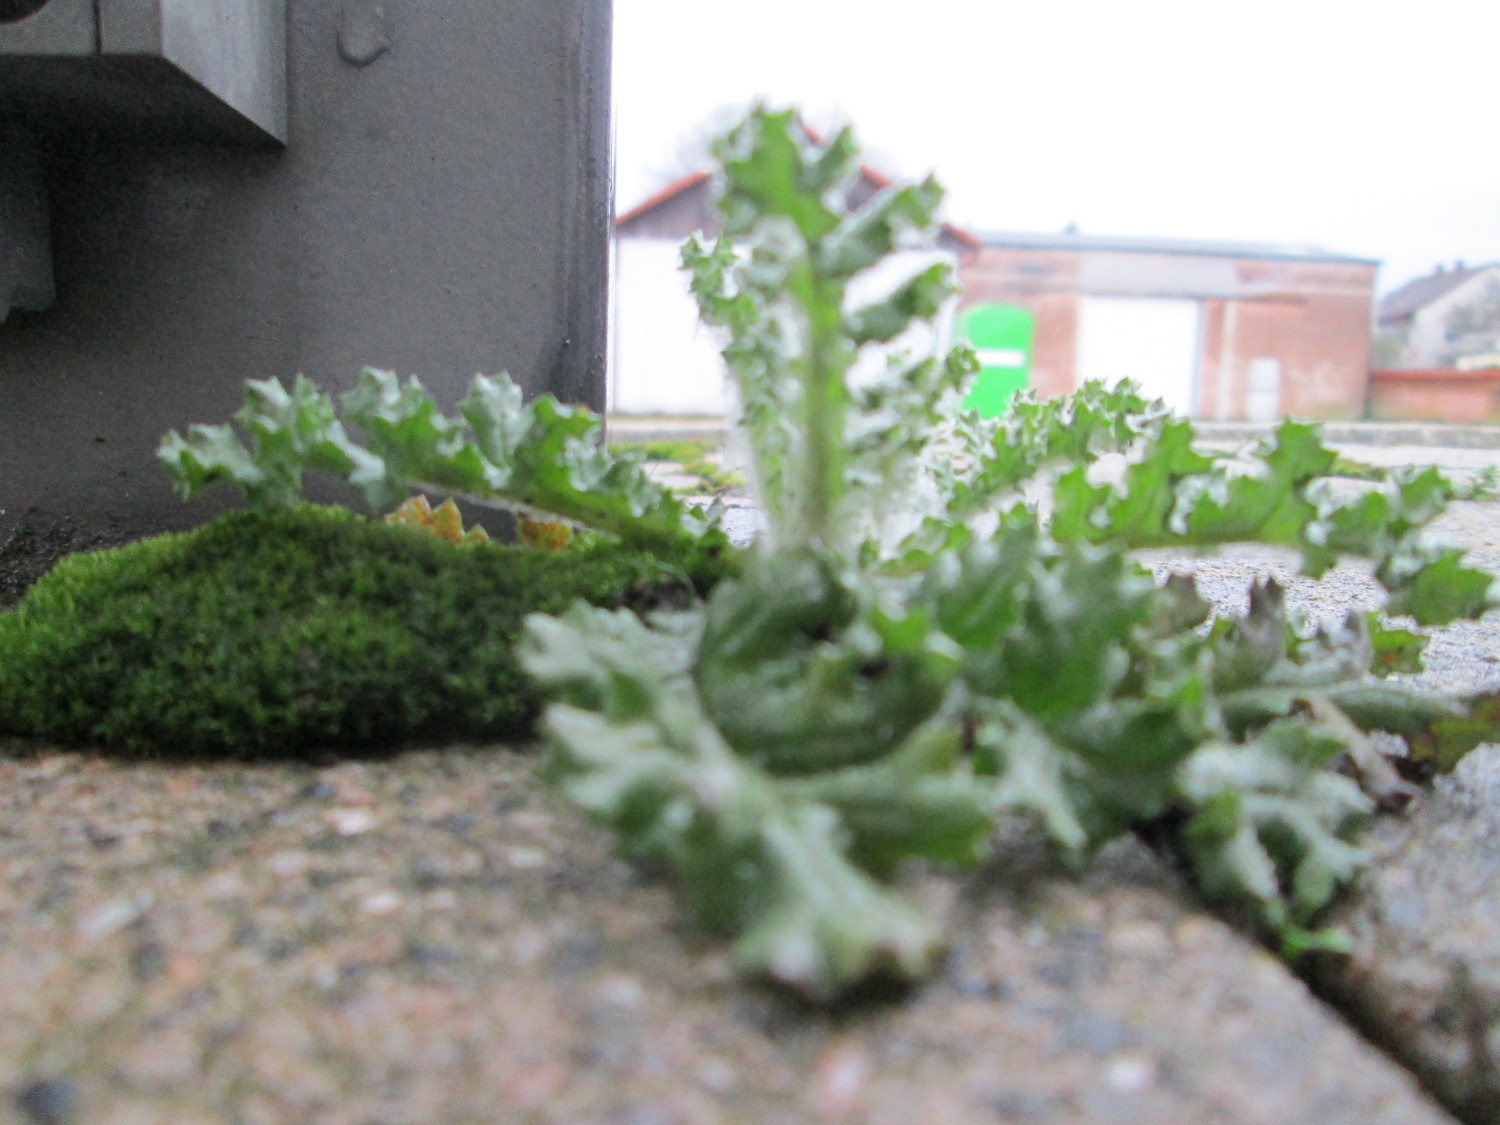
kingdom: Plantae
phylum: Tracheophyta
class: Magnoliopsida
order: Asterales
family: Asteraceae
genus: Senecio
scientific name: Senecio vulgaris
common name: Old-man-in-the-spring
